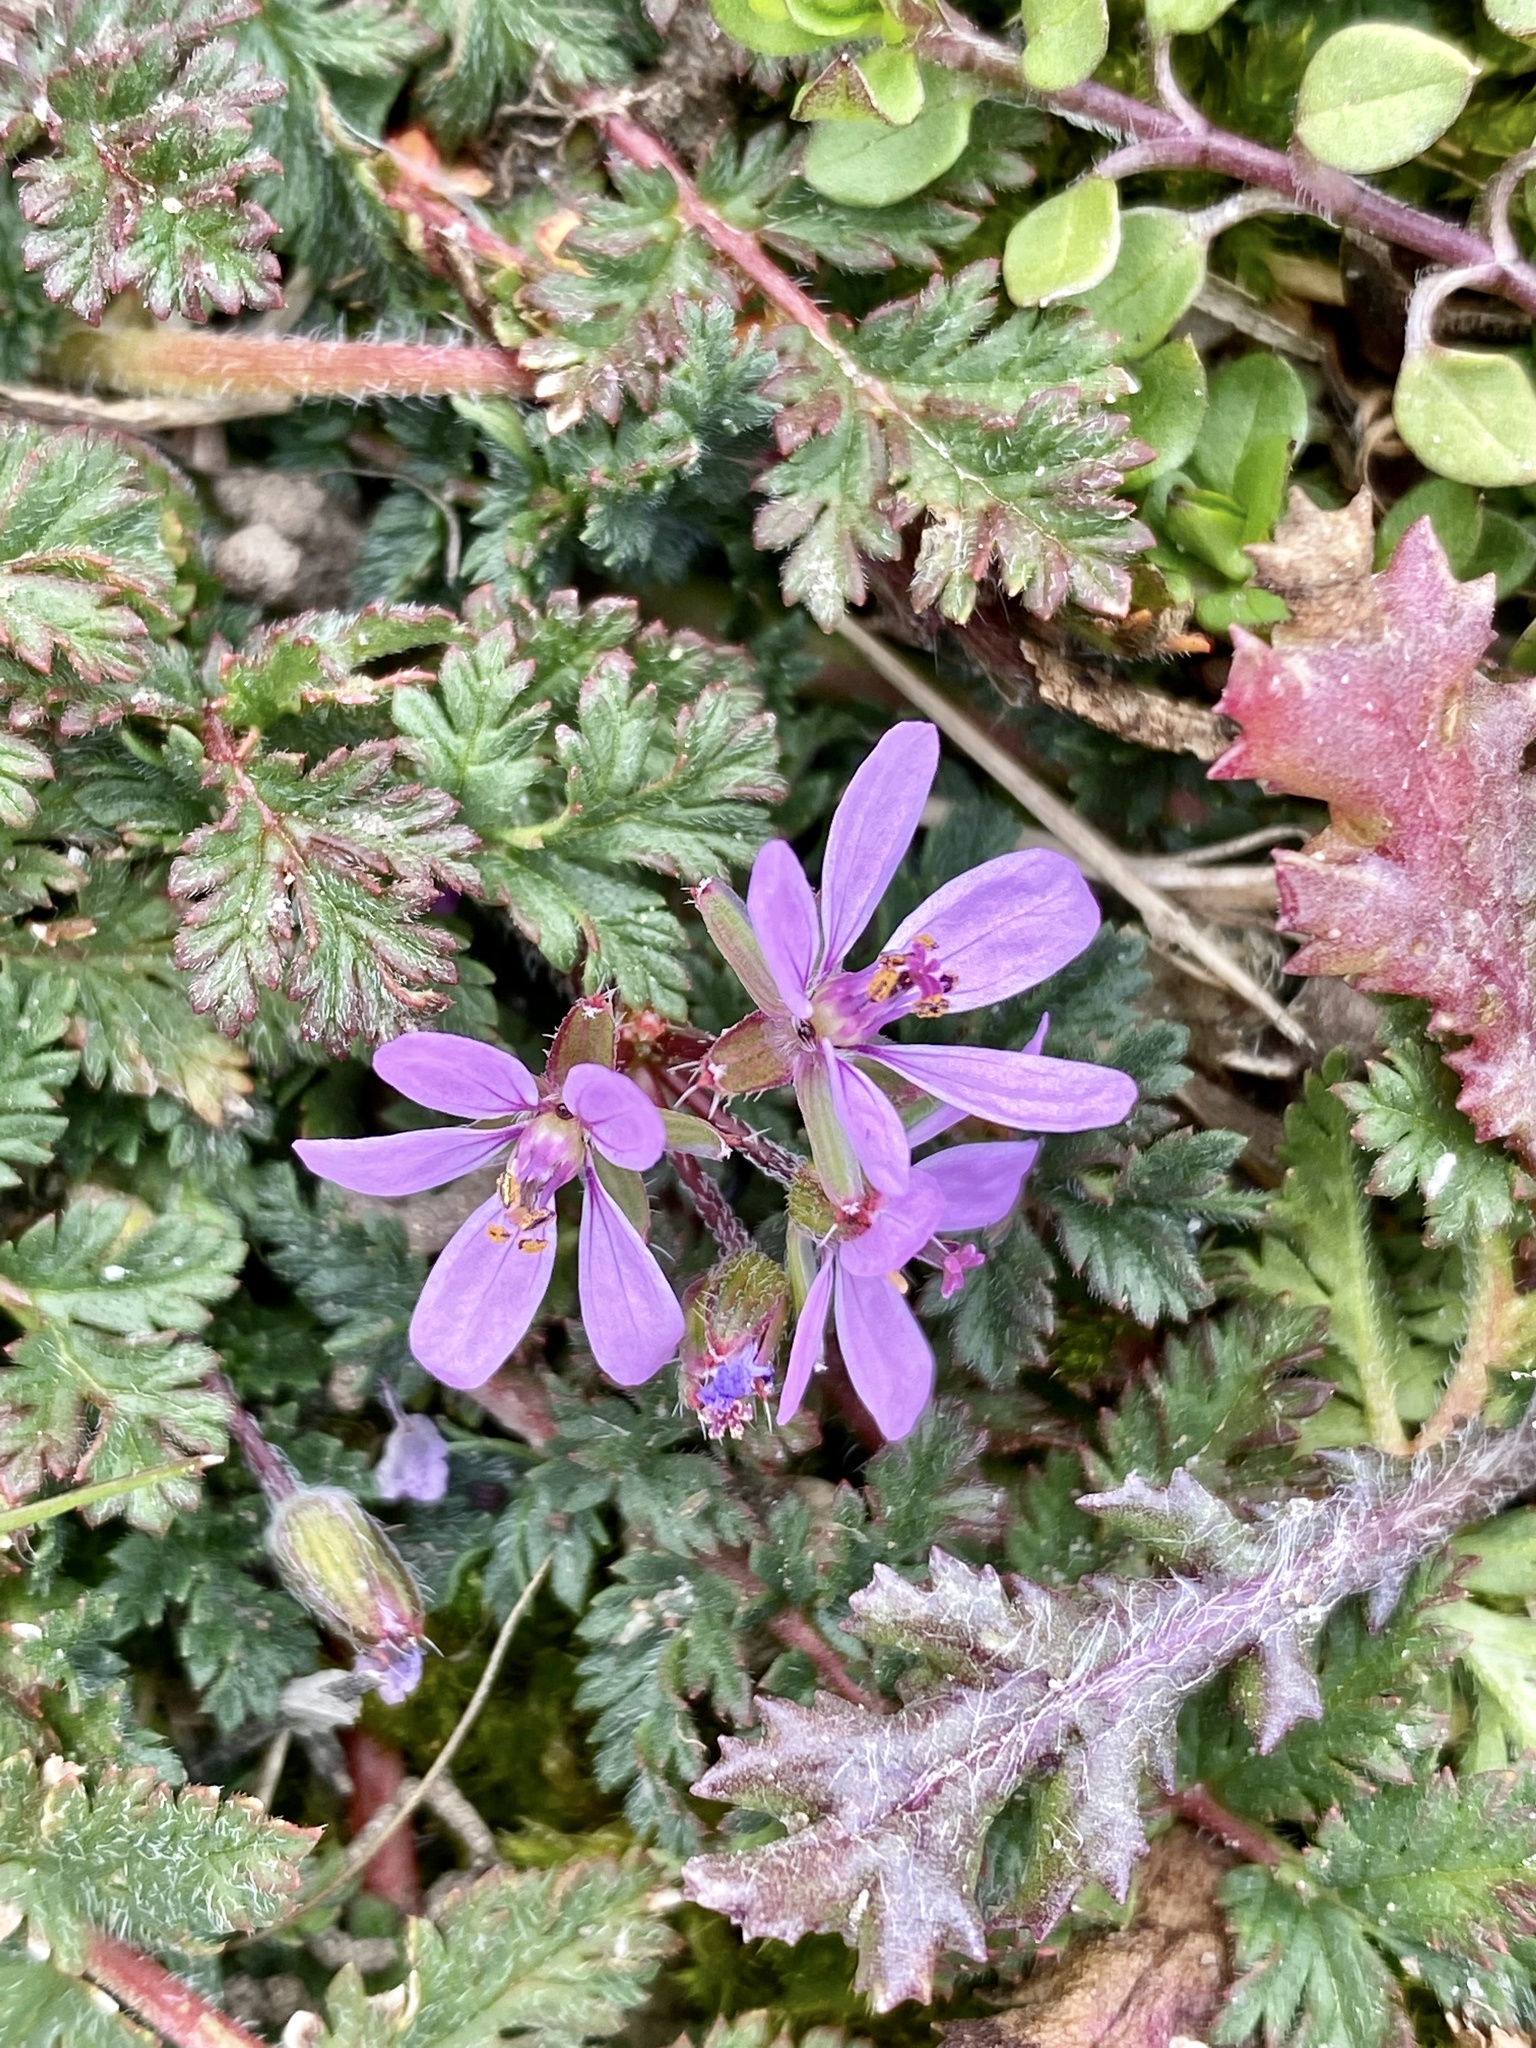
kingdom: Plantae
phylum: Tracheophyta
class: Magnoliopsida
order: Geraniales
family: Geraniaceae
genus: Erodium
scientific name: Erodium cicutarium
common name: Common stork's-bill
